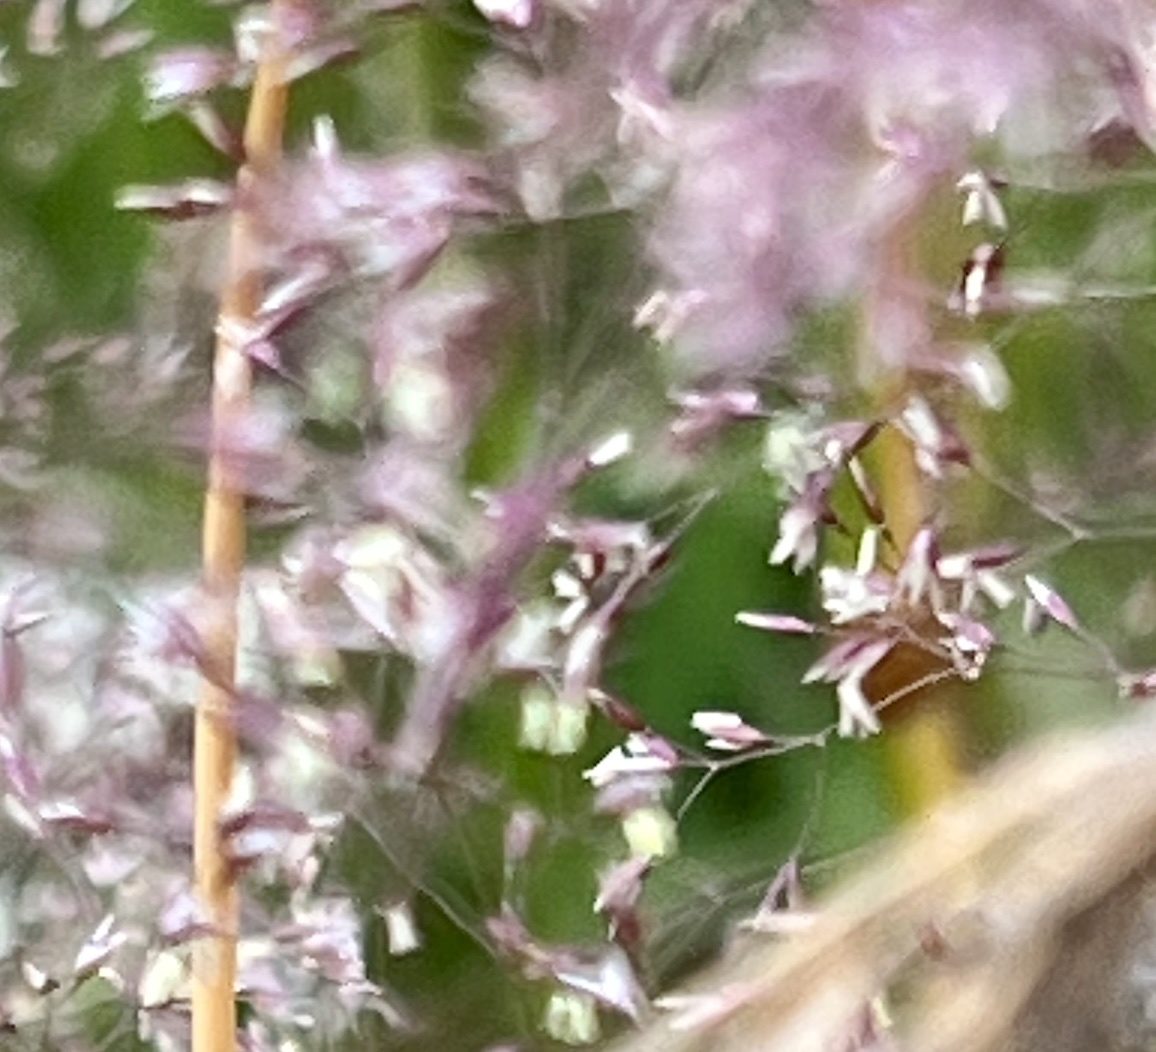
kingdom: Plantae
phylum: Tracheophyta
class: Liliopsida
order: Poales
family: Poaceae
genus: Agrostis
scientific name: Agrostis capillaris
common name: Colonial bentgrass
